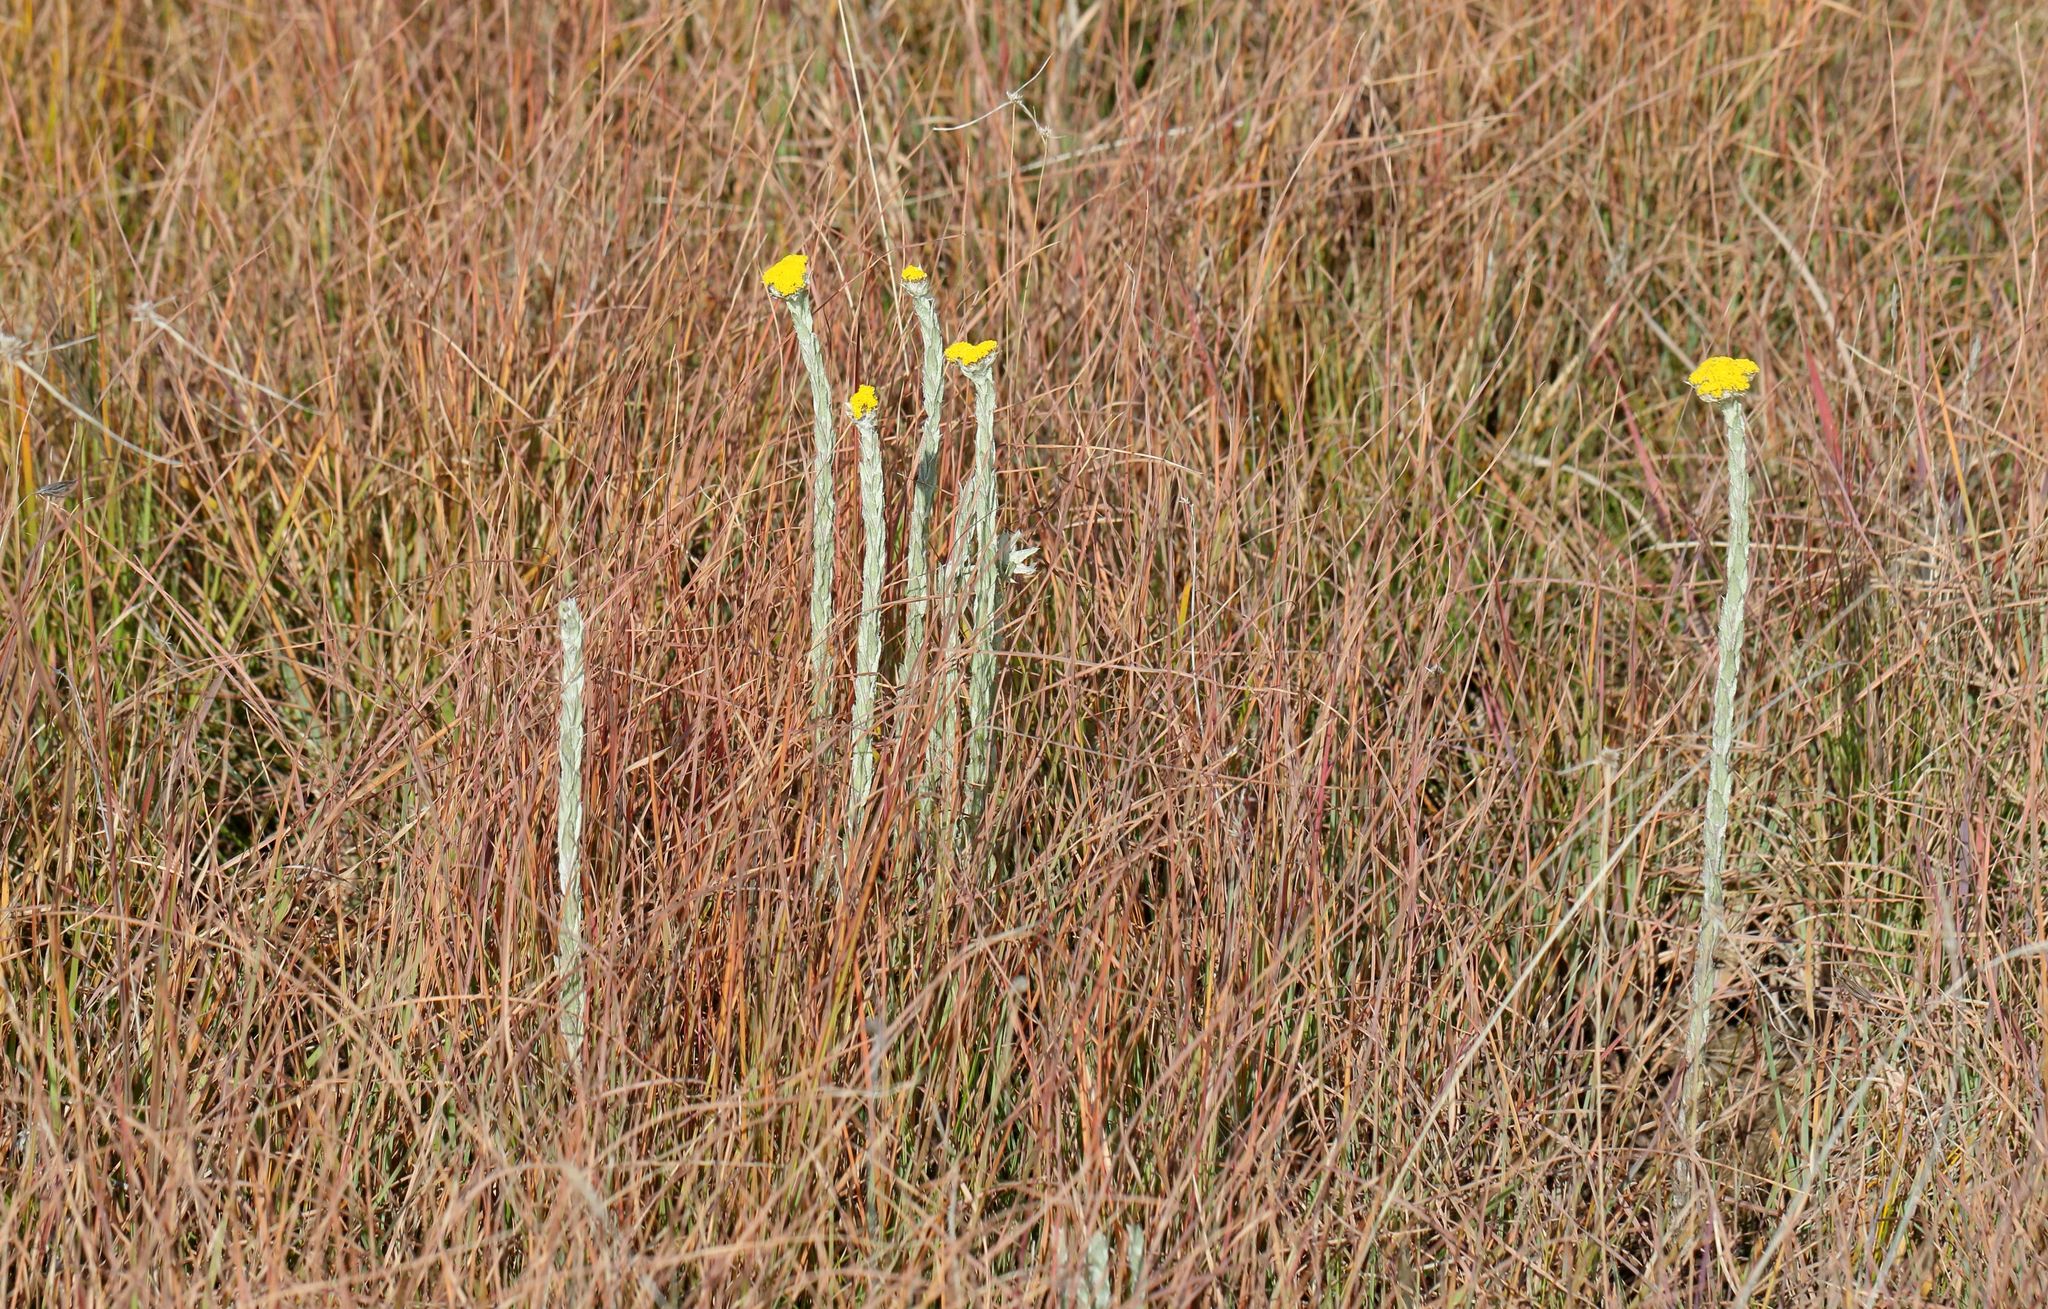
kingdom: Plantae
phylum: Tracheophyta
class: Magnoliopsida
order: Asterales
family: Asteraceae
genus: Helichrysum
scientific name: Helichrysum glomeratum
